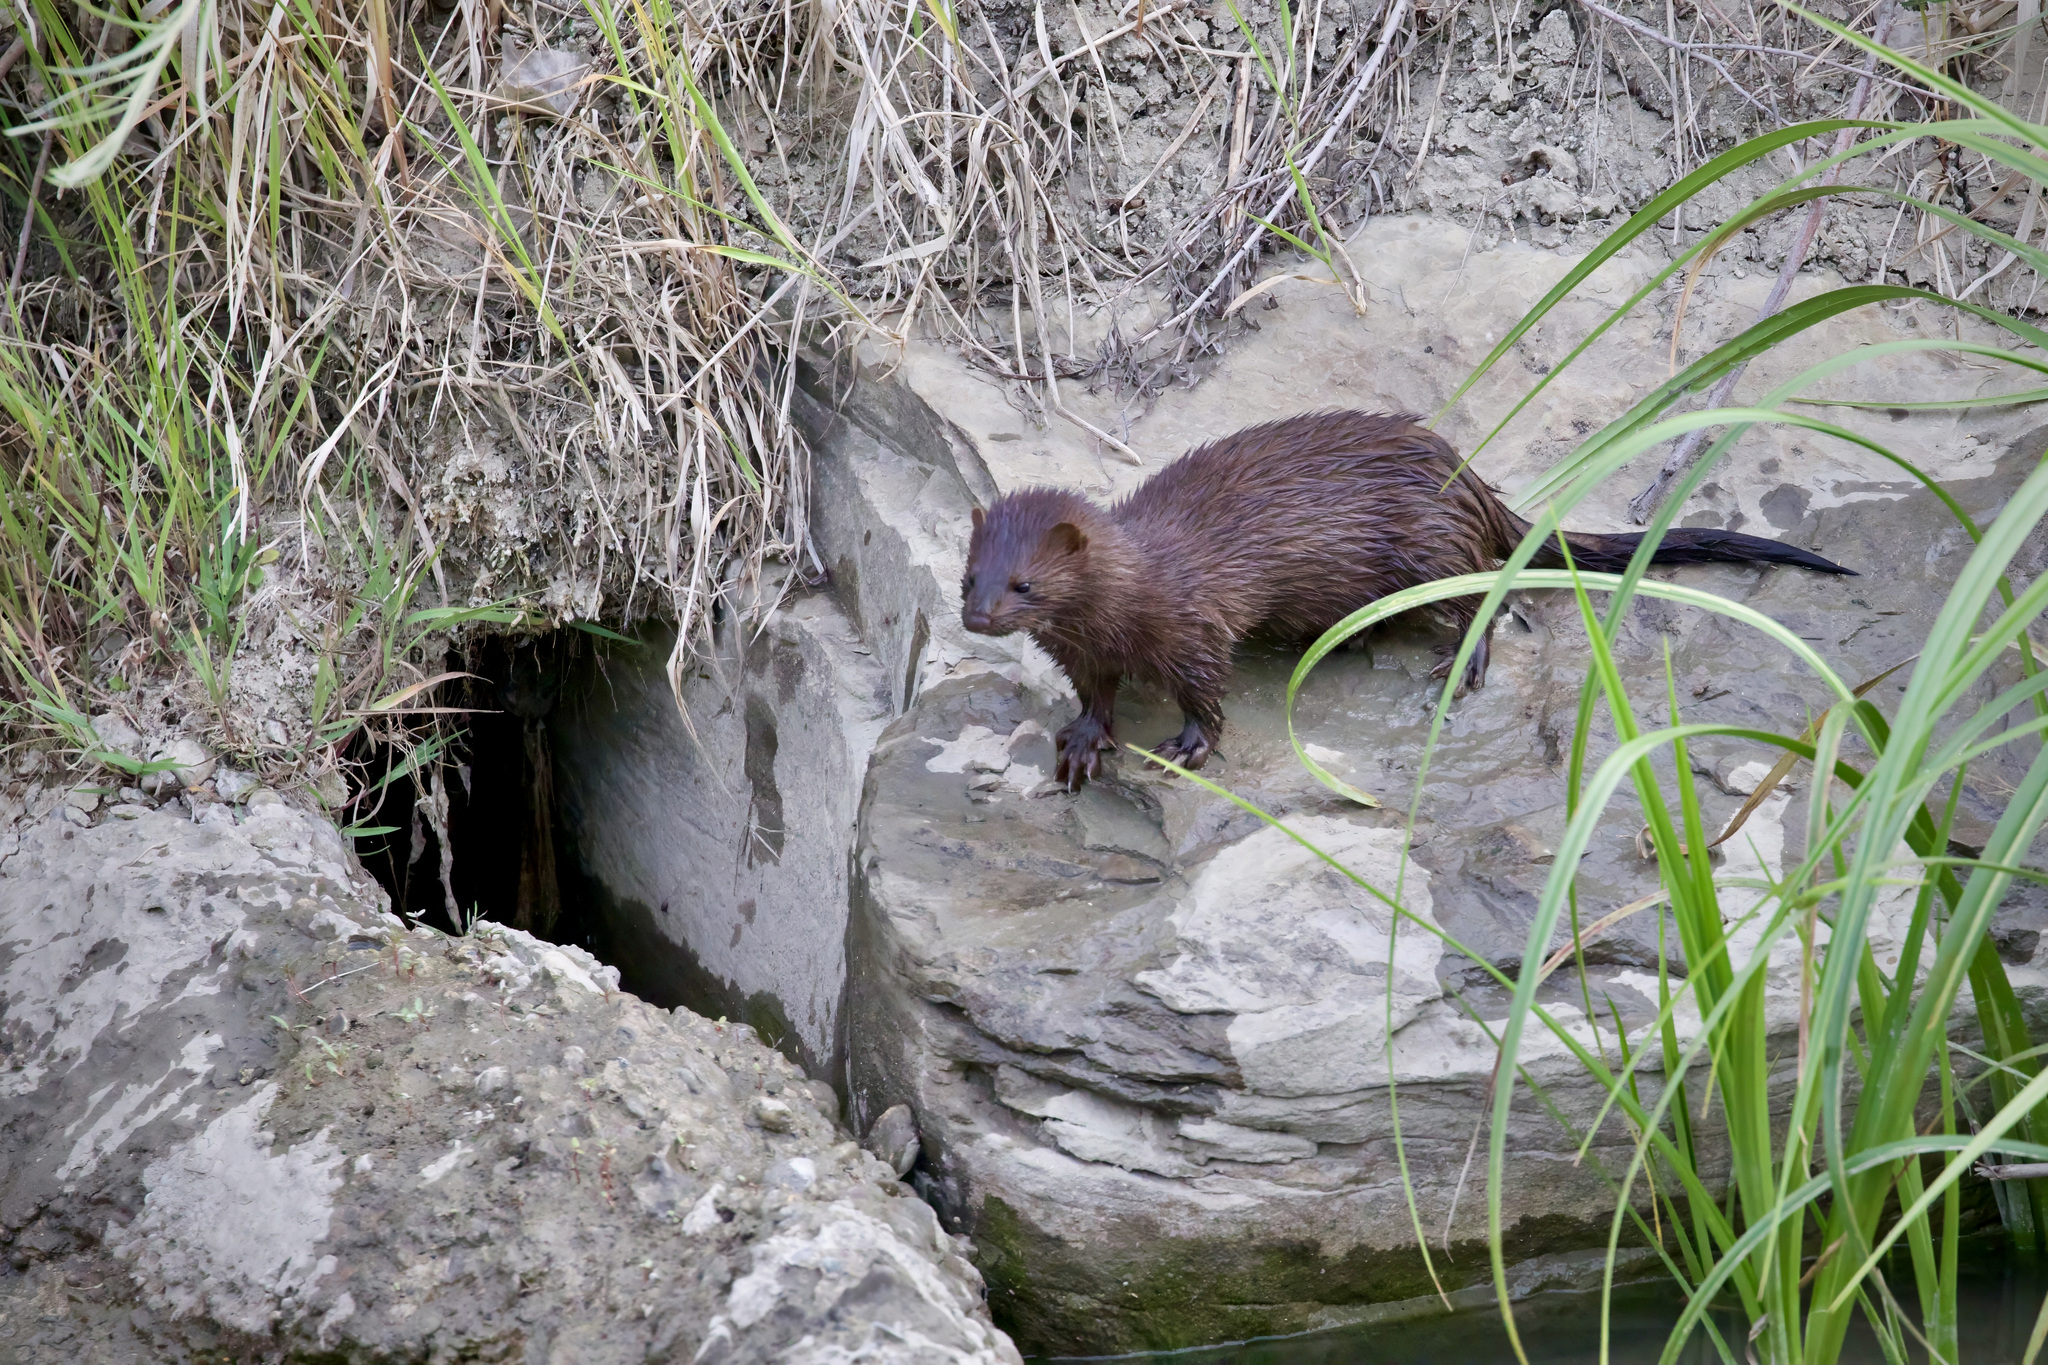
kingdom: Animalia
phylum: Chordata
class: Mammalia
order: Carnivora
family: Mustelidae
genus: Mustela
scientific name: Mustela
